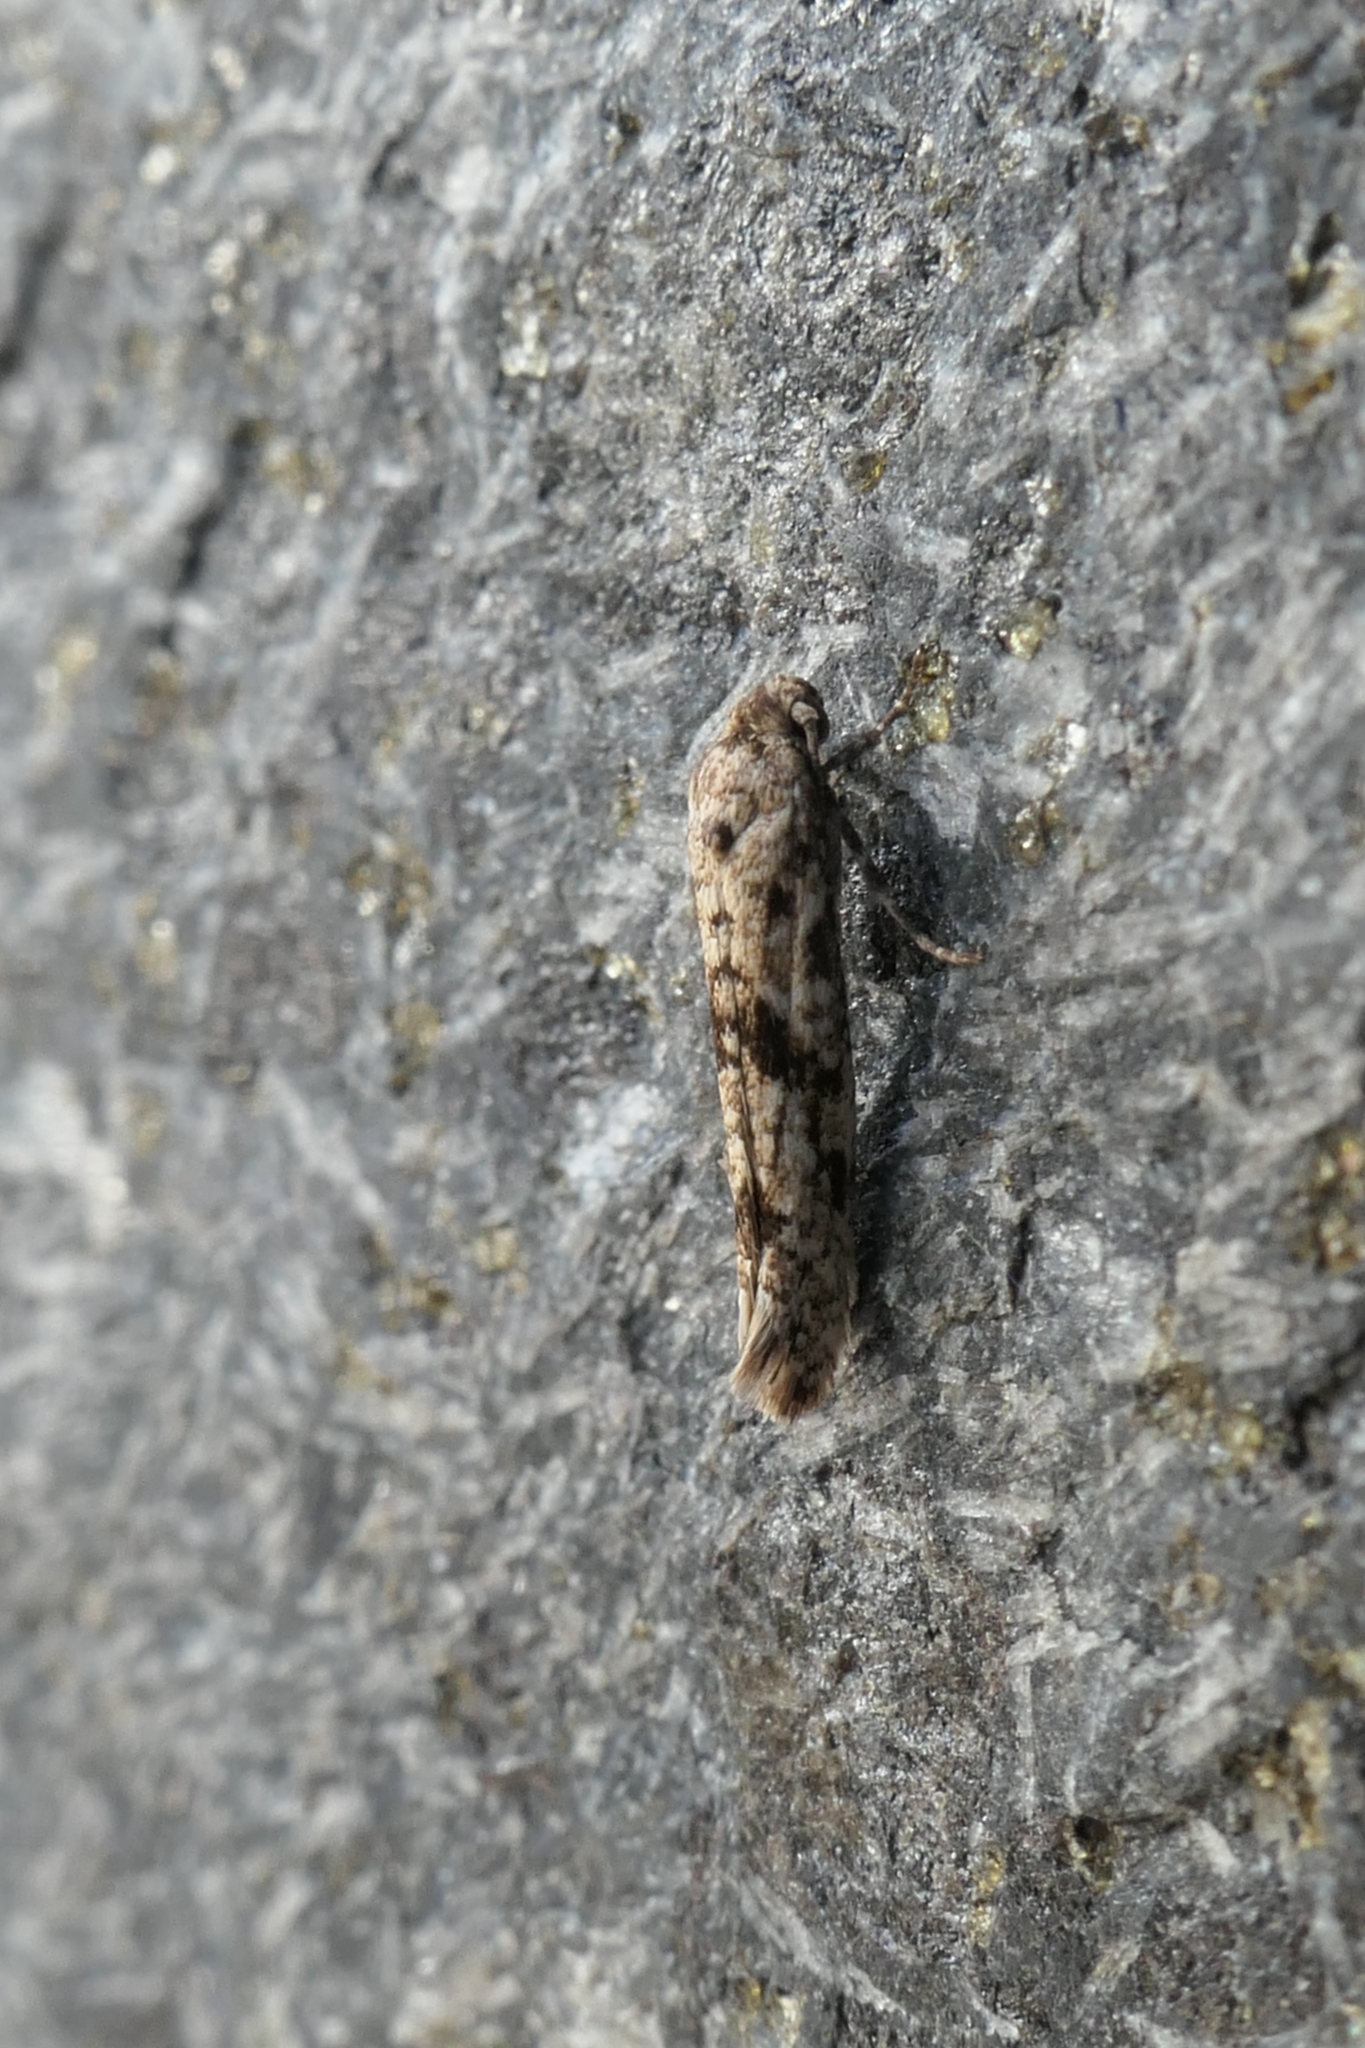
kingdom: Animalia
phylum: Arthropoda
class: Insecta
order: Lepidoptera
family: Praydidae
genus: Prays
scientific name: Prays nephelomima
